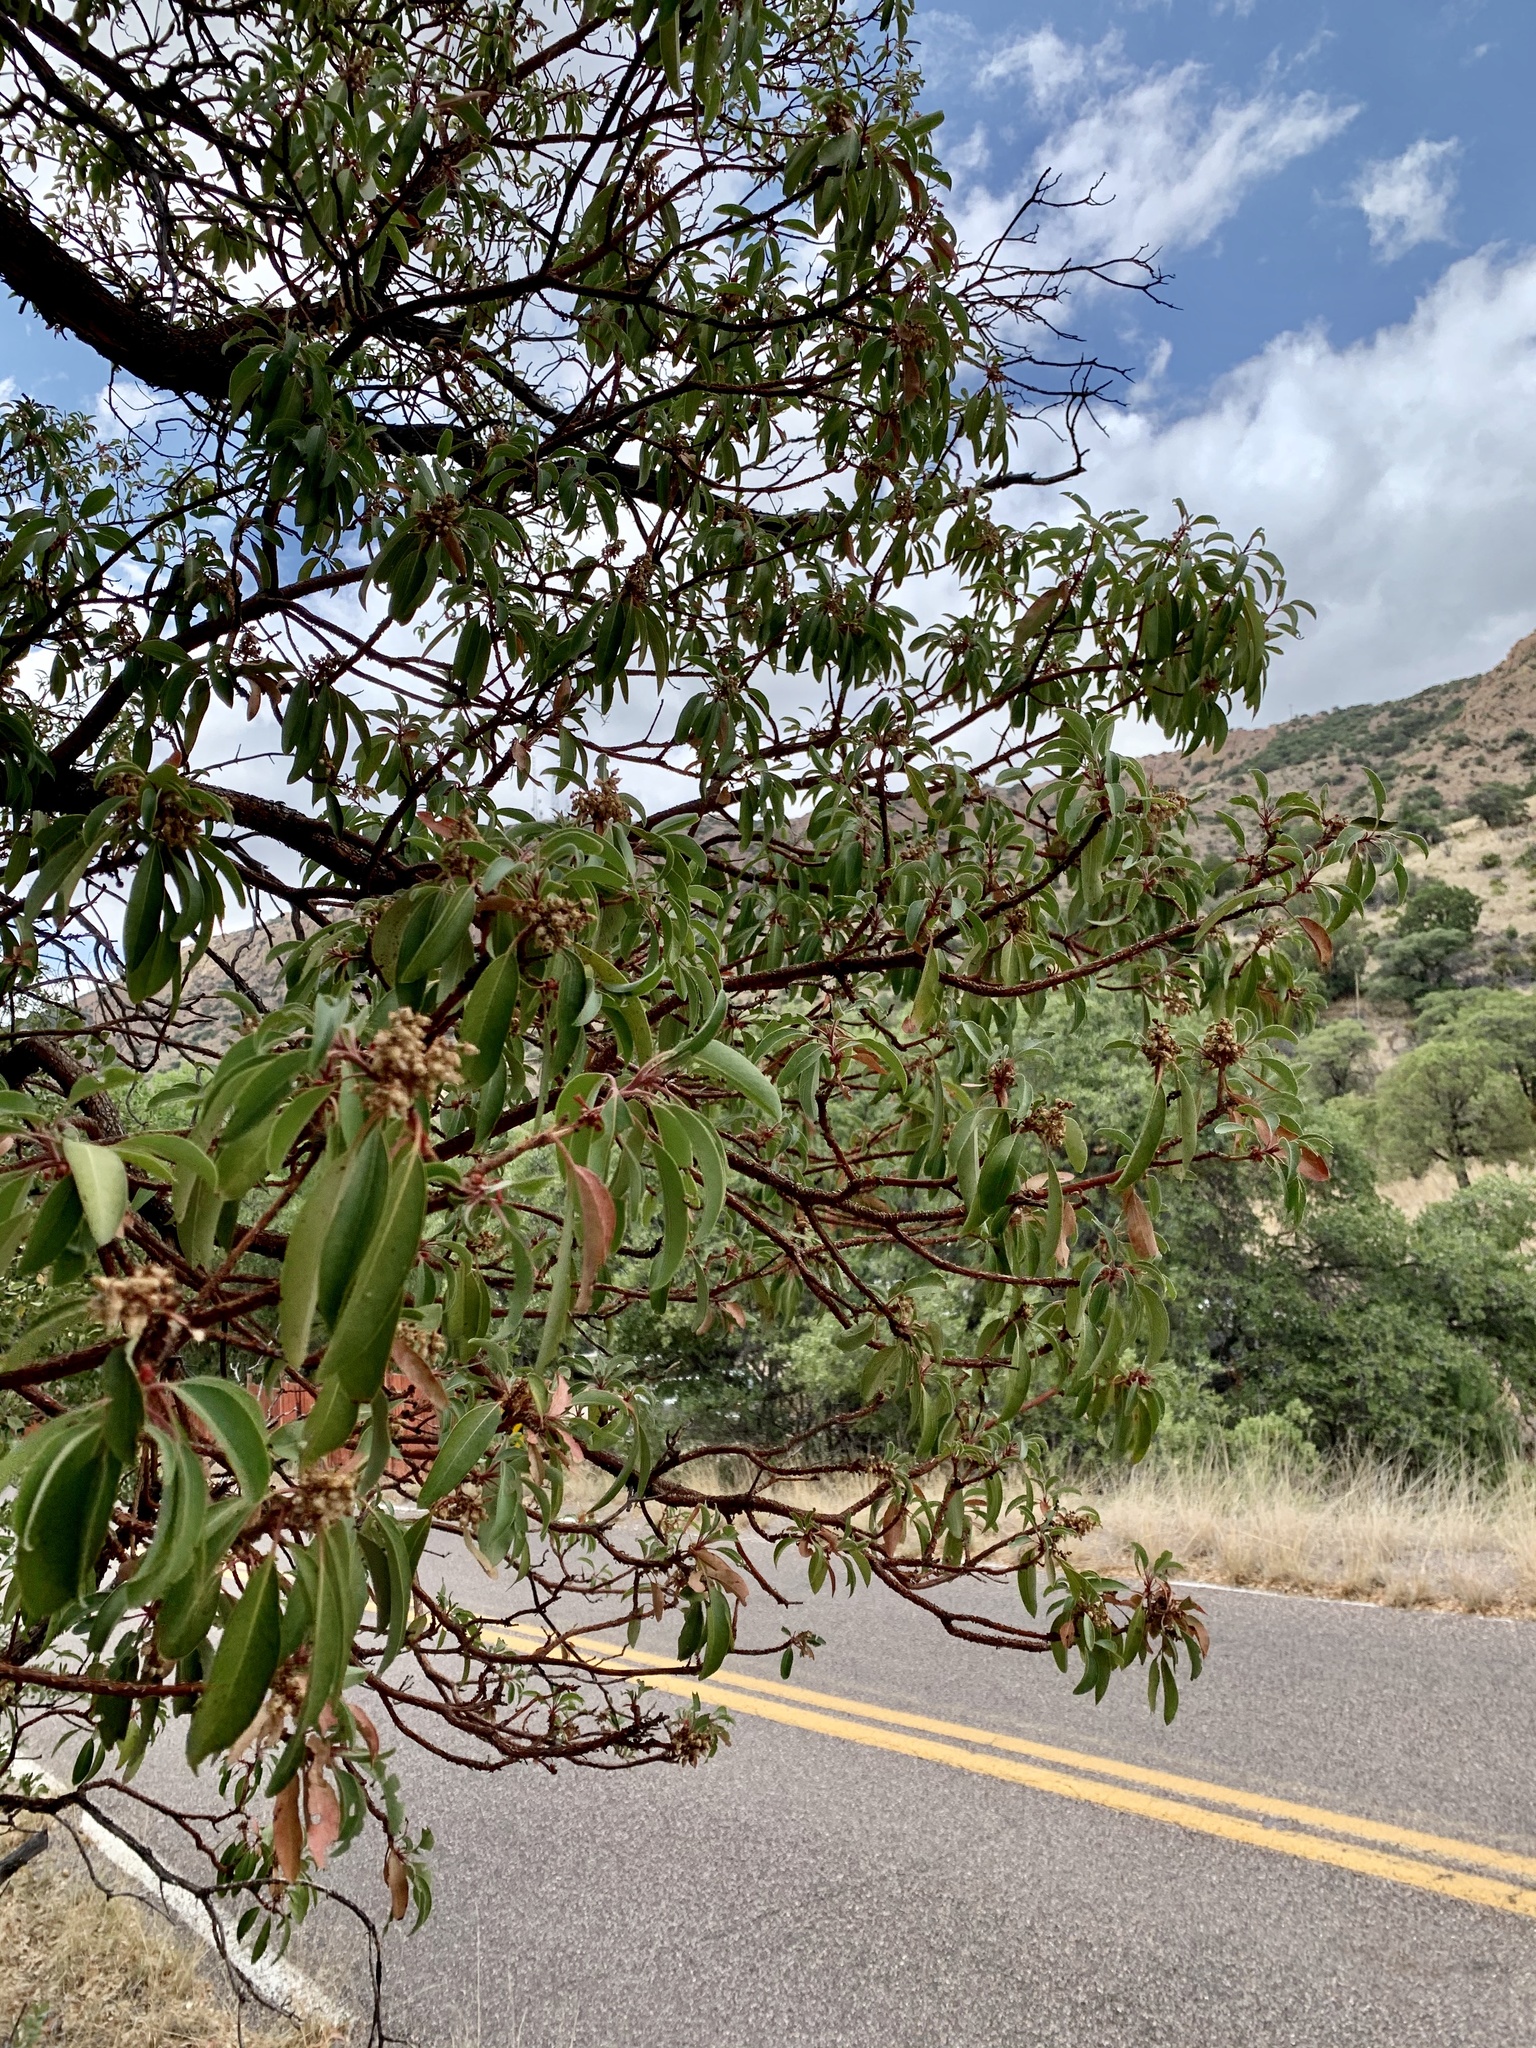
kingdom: Plantae
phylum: Tracheophyta
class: Magnoliopsida
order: Ericales
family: Ericaceae
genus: Arbutus
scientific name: Arbutus arizonica
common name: Arizona madrone
